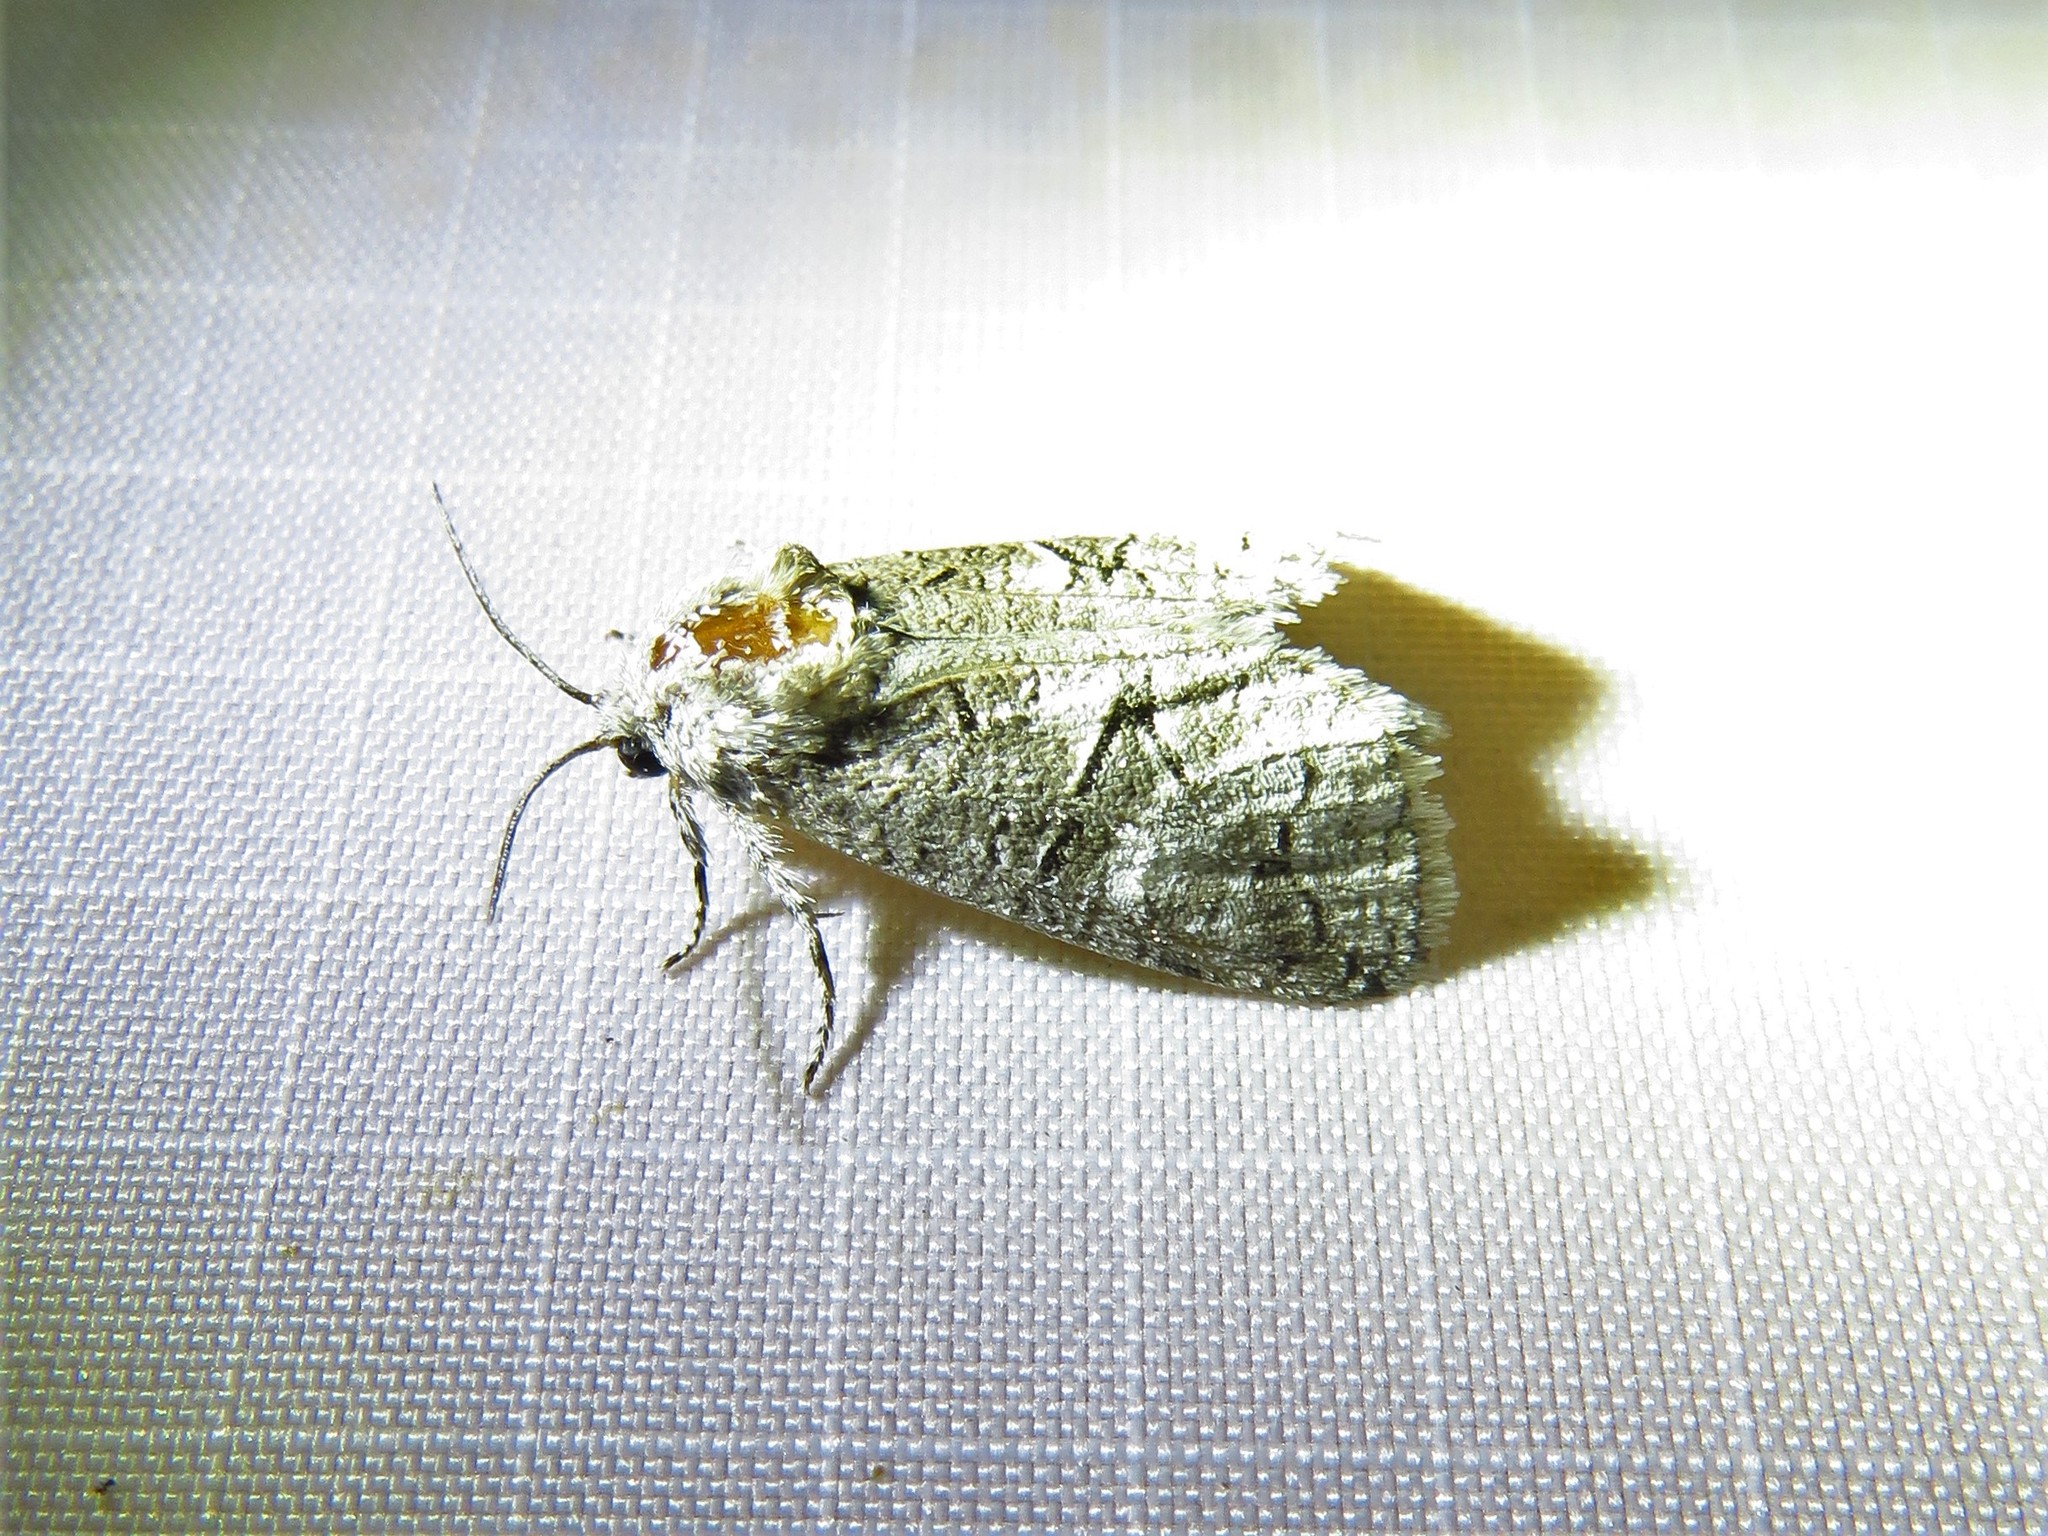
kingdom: Animalia
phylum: Arthropoda
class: Insecta
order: Lepidoptera
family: Cossidae
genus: Fania
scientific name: Fania nanus
